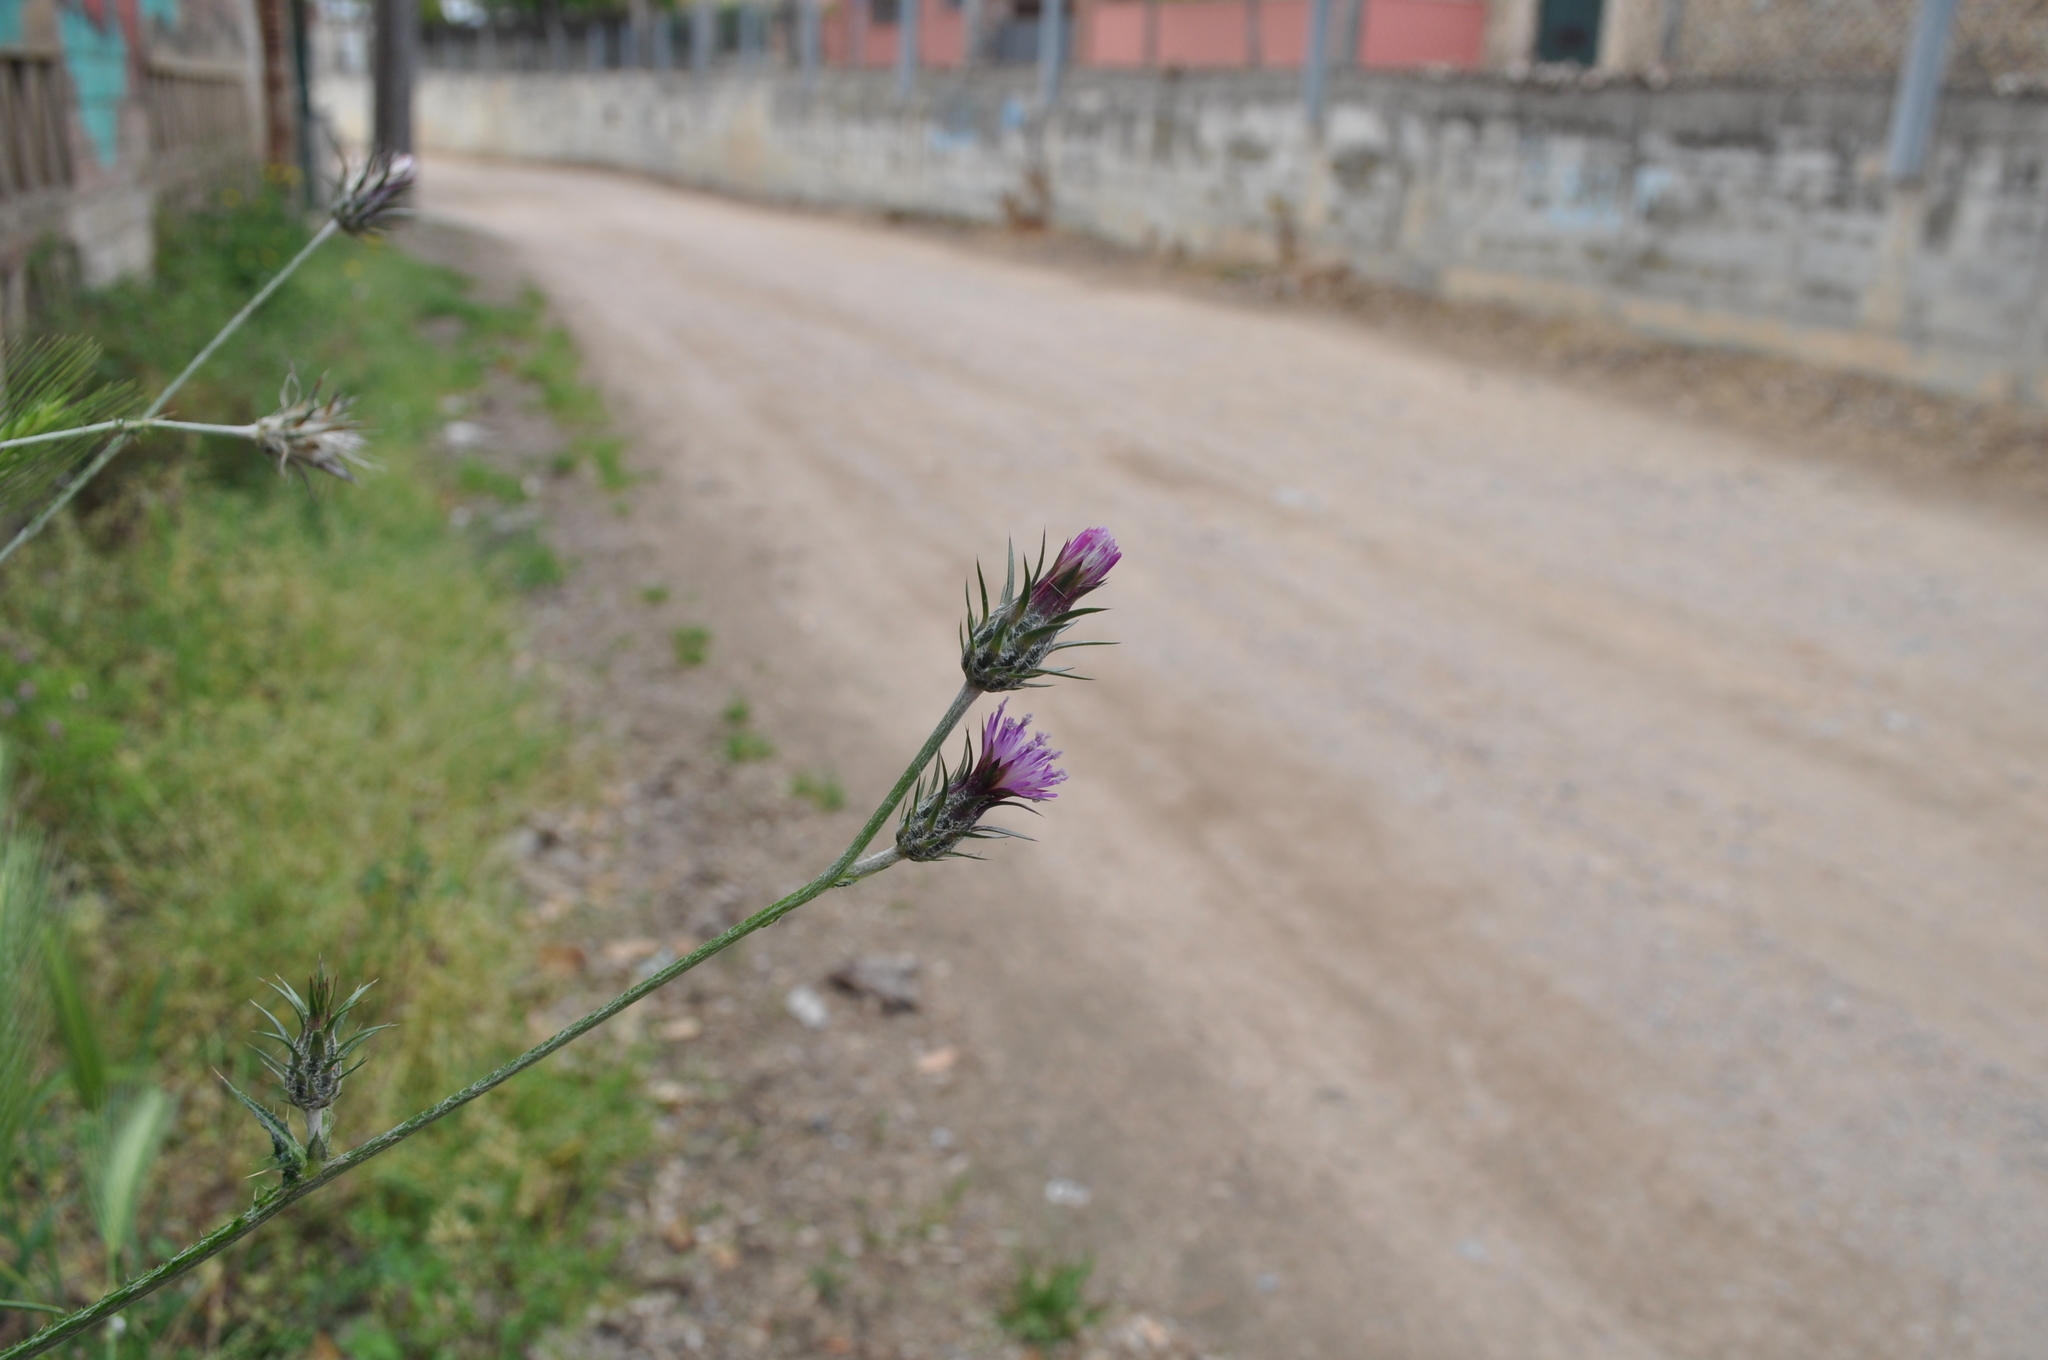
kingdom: Plantae
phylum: Tracheophyta
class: Magnoliopsida
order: Asterales
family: Asteraceae
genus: Carduus
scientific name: Carduus pycnocephalus
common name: Plymouth thistle
